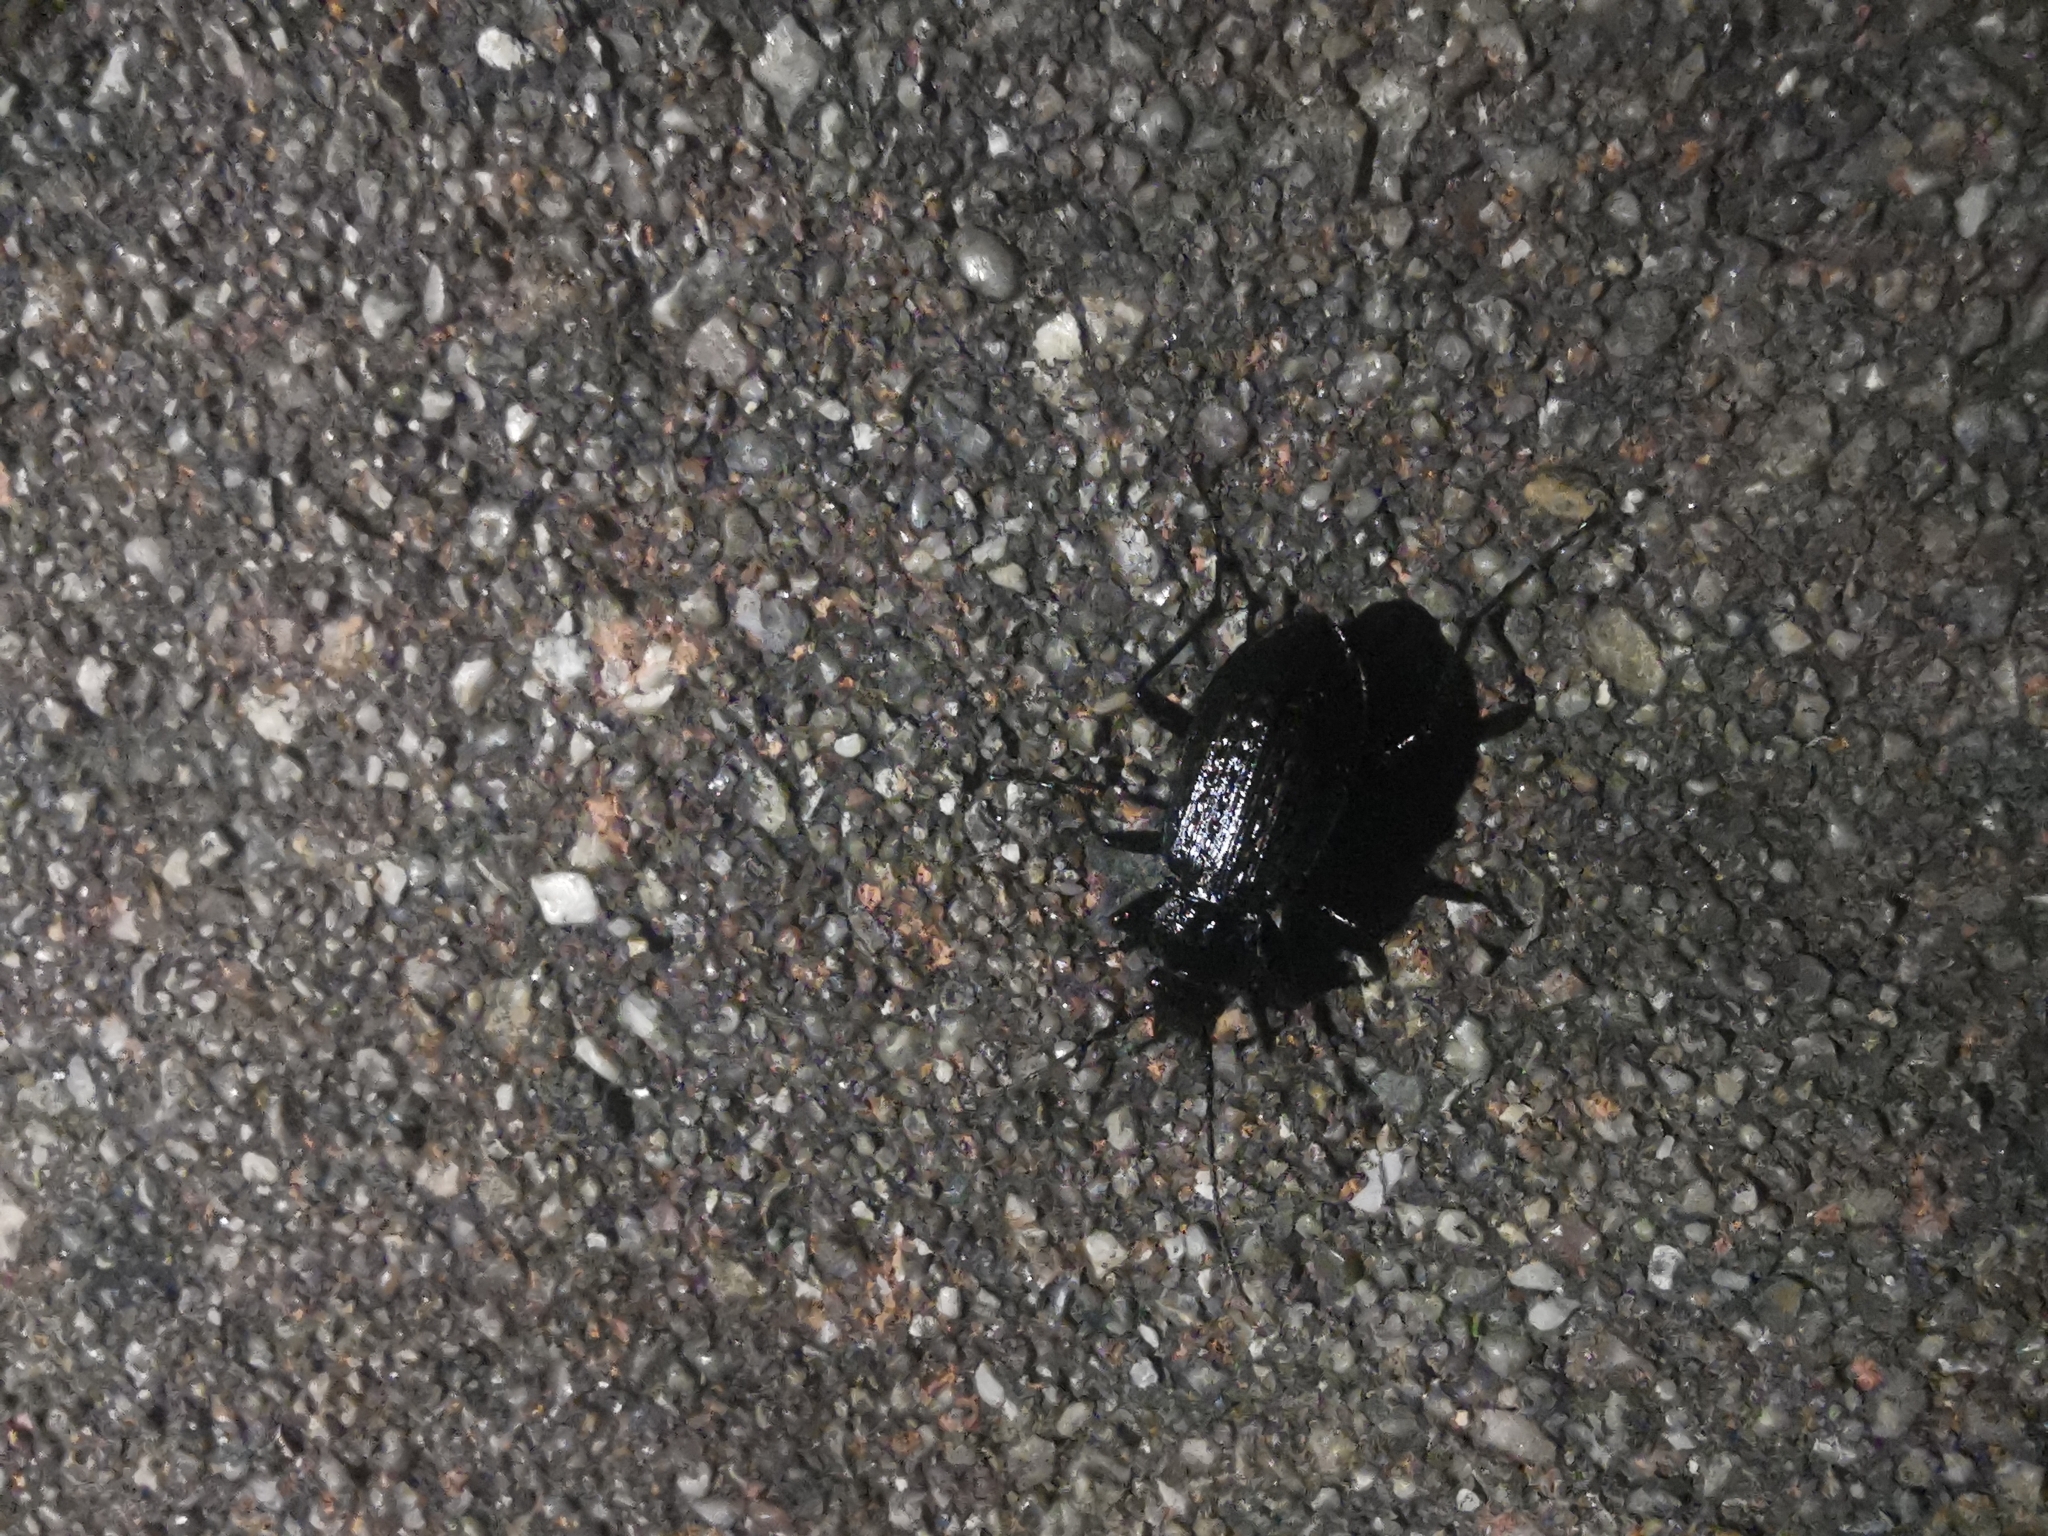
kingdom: Animalia
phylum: Arthropoda
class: Insecta
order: Coleoptera
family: Carabidae
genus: Carabus
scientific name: Carabus granulatus
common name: Granulate ground beetle
